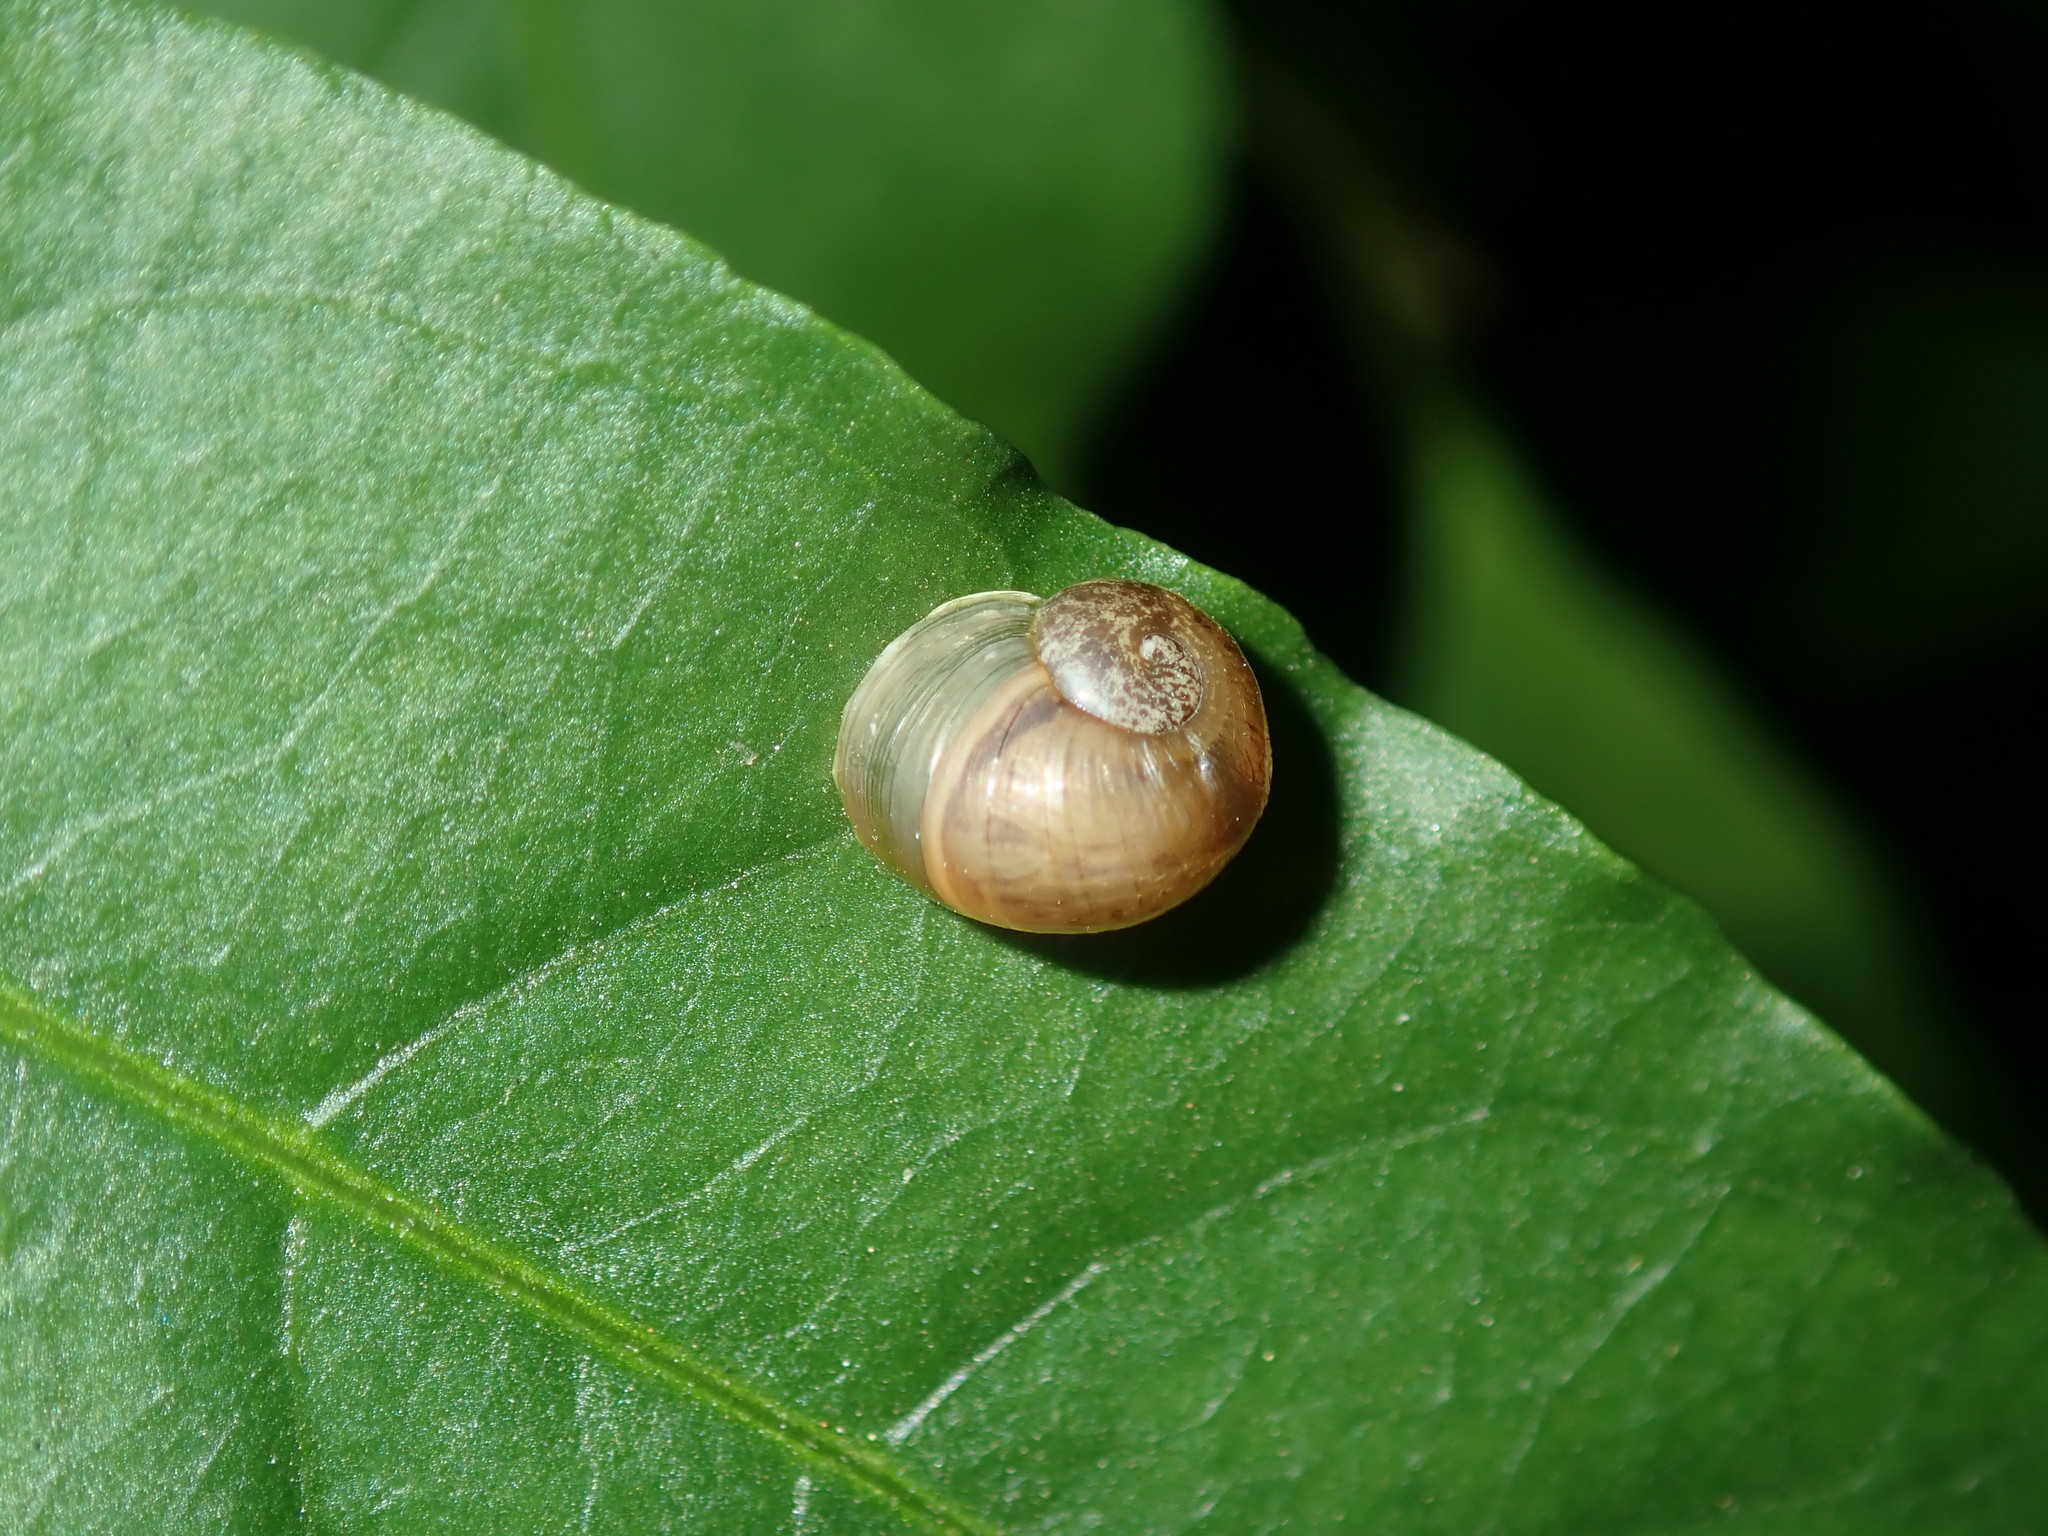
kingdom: Animalia
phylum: Mollusca
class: Gastropoda
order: Stylommatophora
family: Helicidae
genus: Cornu
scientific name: Cornu aspersum
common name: Brown garden snail
